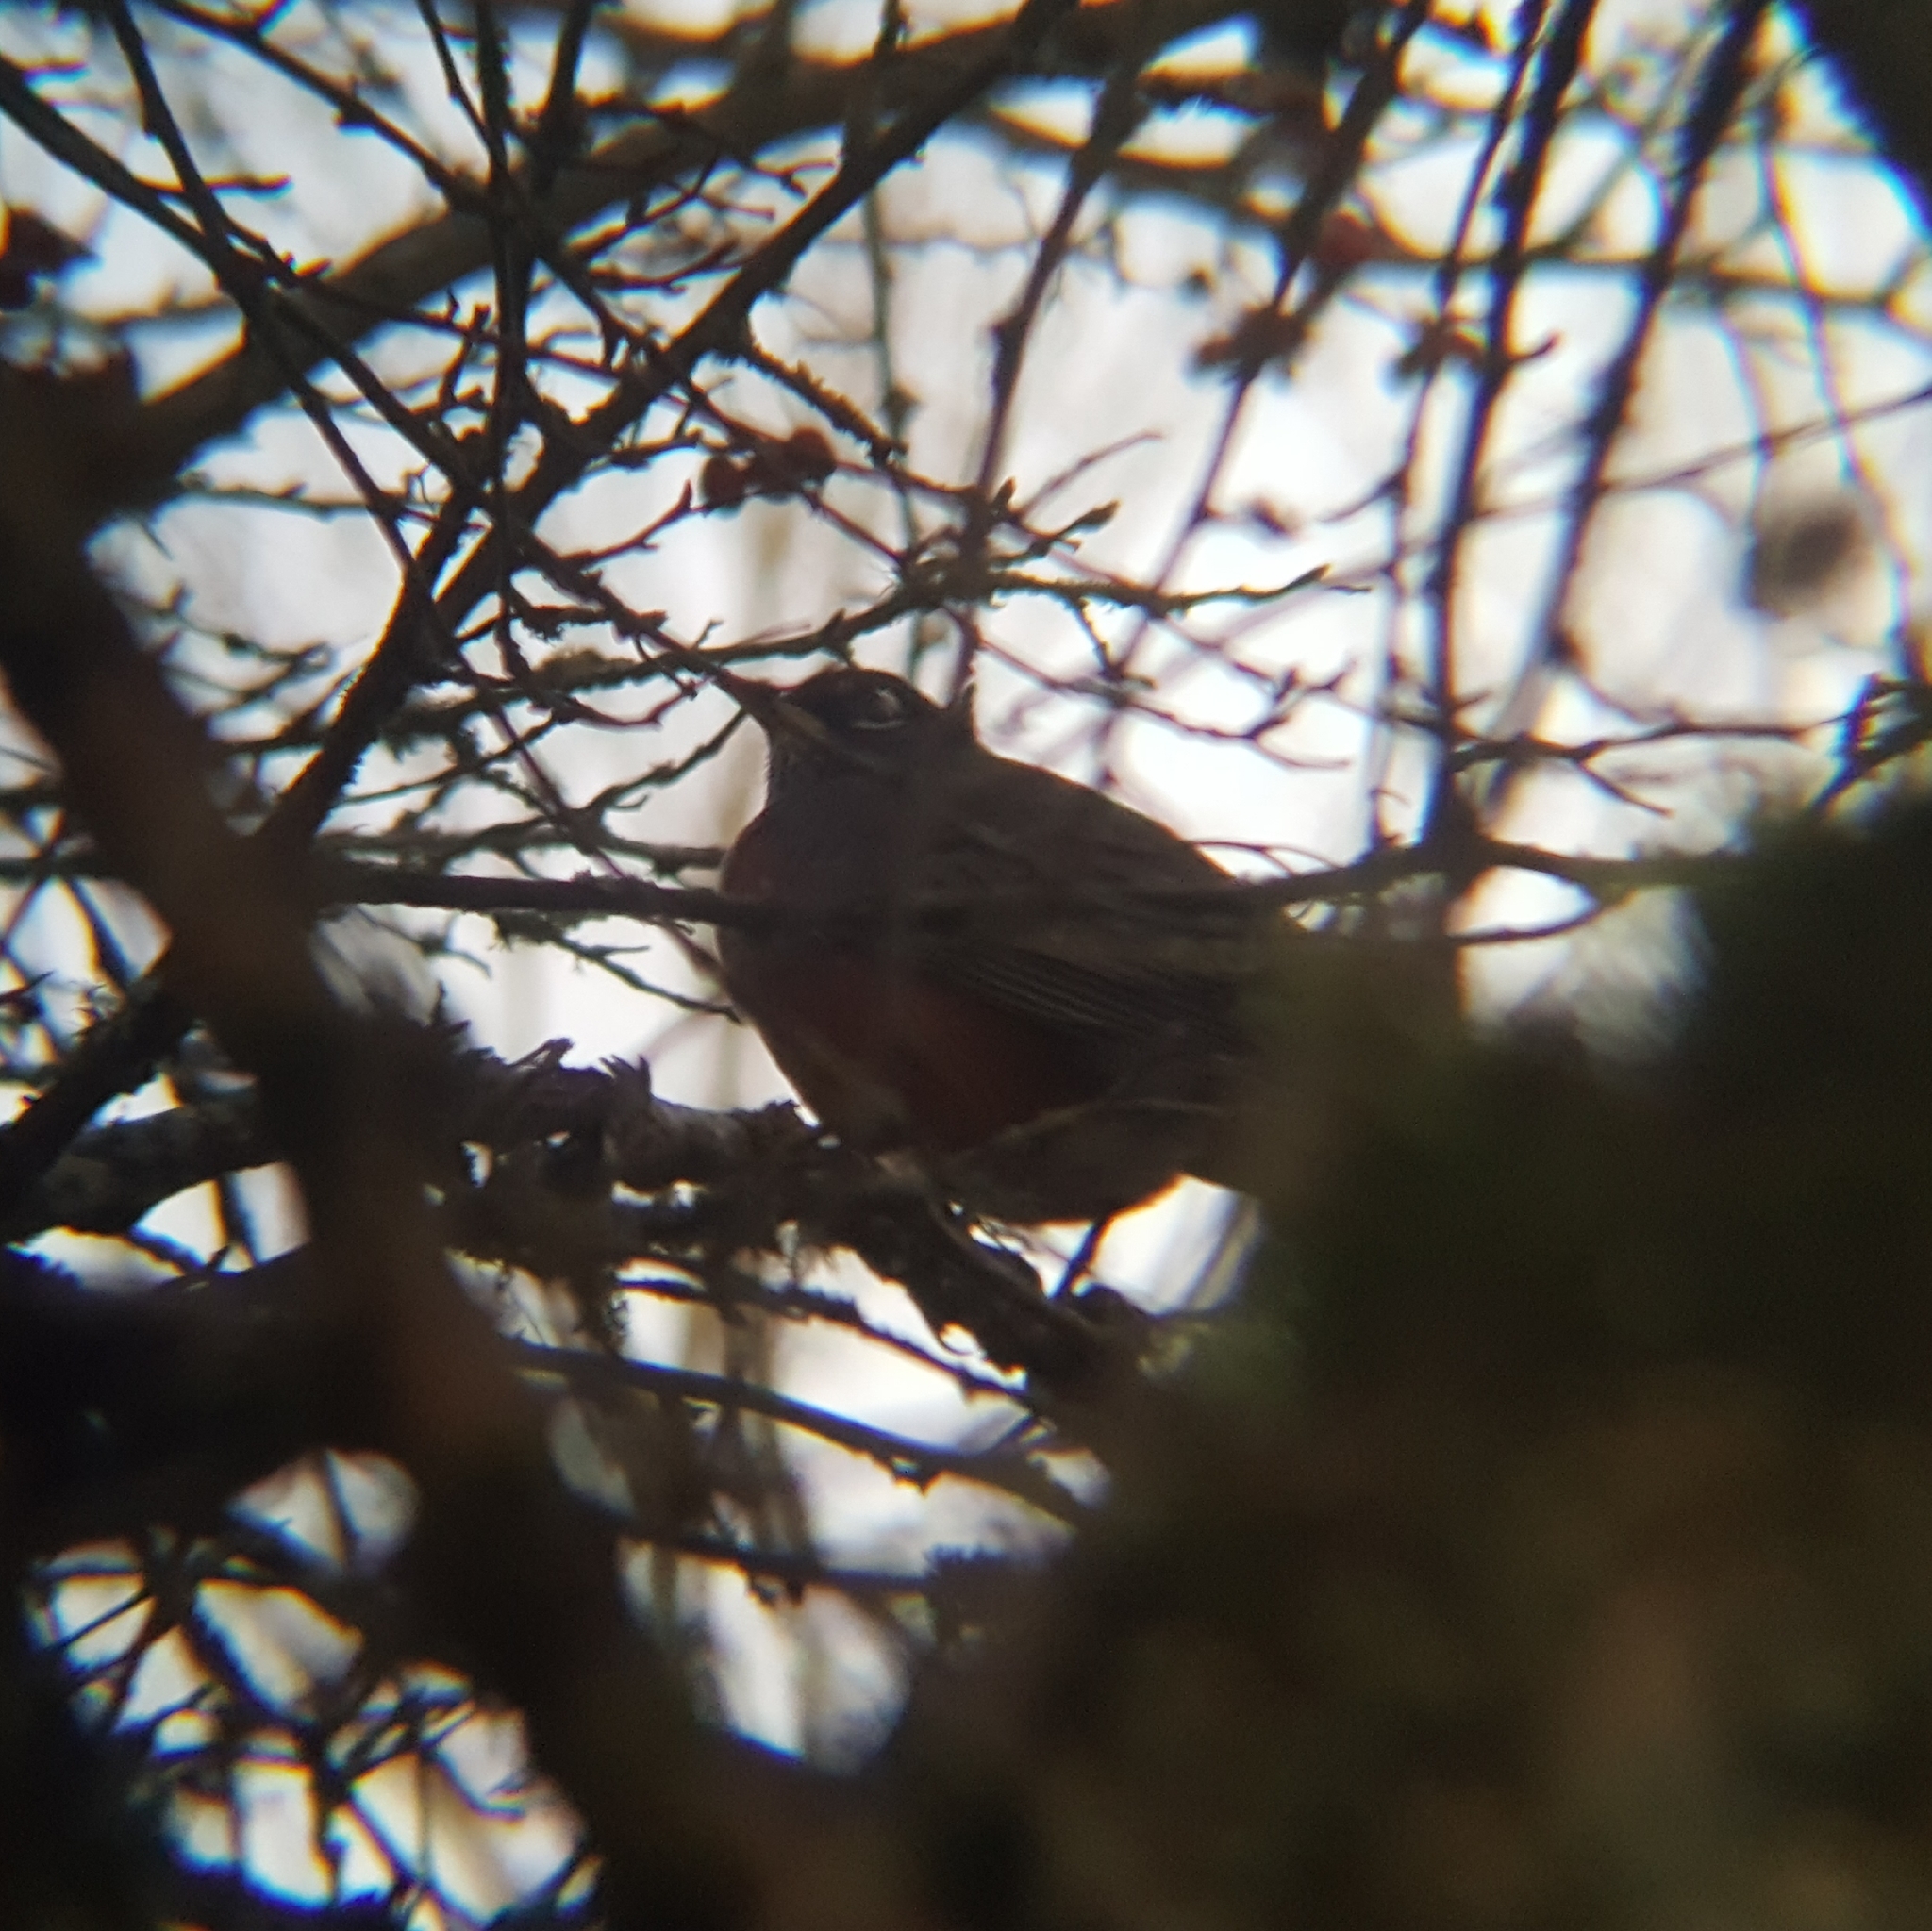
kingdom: Animalia
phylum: Chordata
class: Aves
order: Passeriformes
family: Turdidae
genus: Turdus
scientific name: Turdus migratorius
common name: American robin
